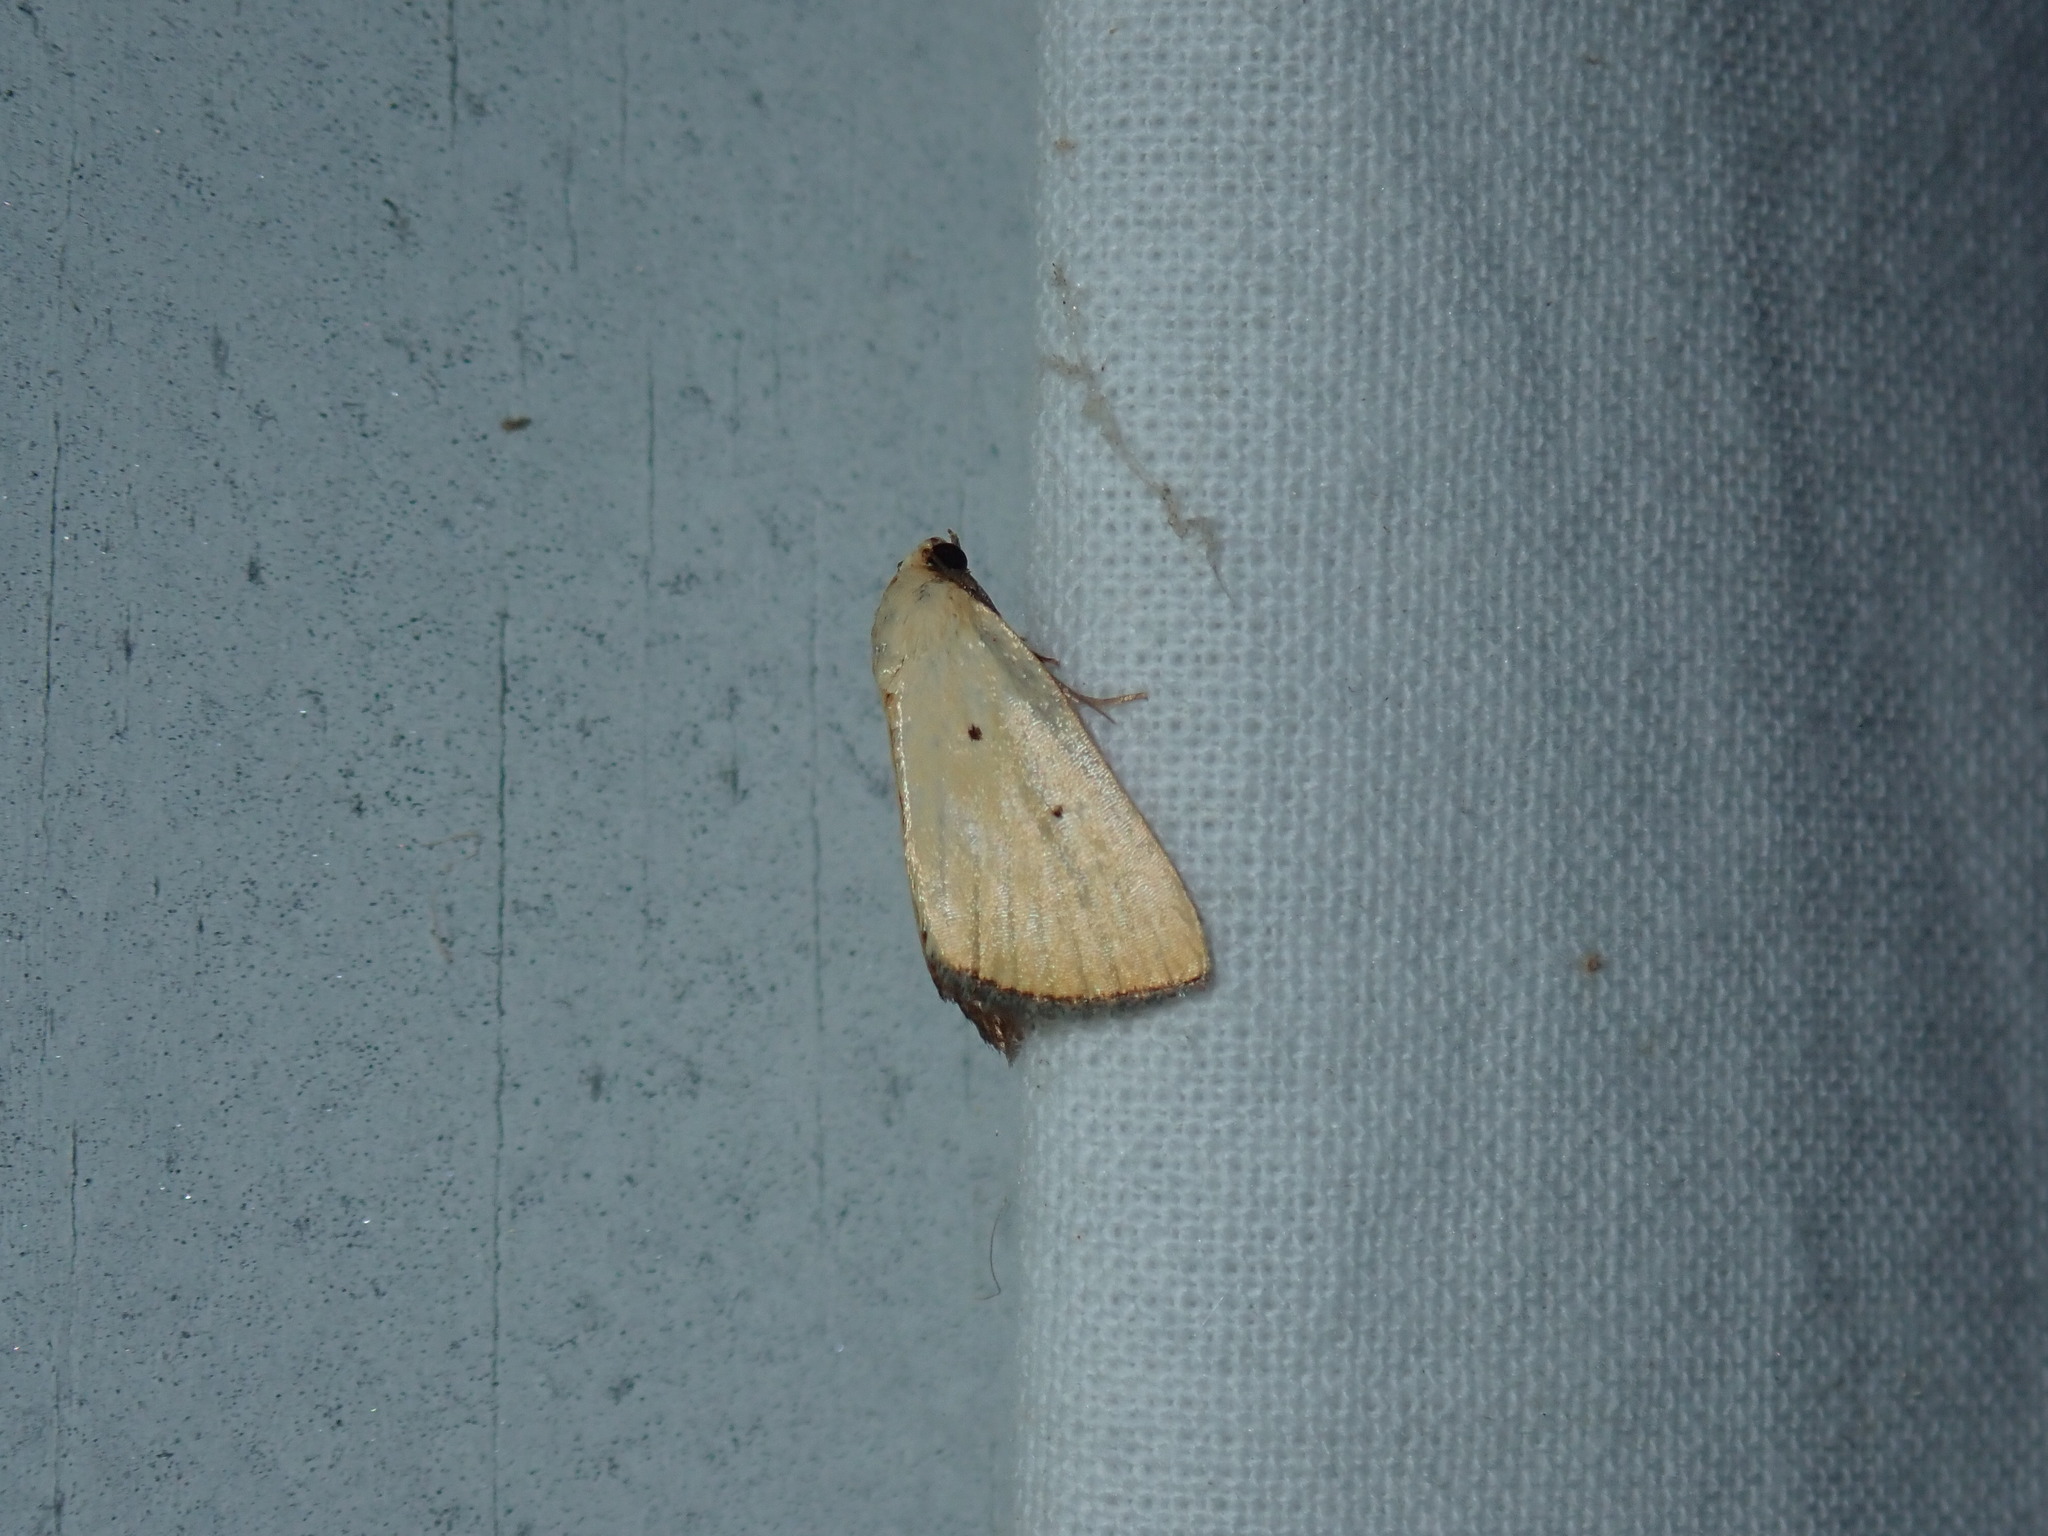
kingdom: Animalia
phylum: Arthropoda
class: Insecta
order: Lepidoptera
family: Noctuidae
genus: Marimatha
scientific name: Marimatha nigrofimbria
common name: Black-bordered lemon moth
